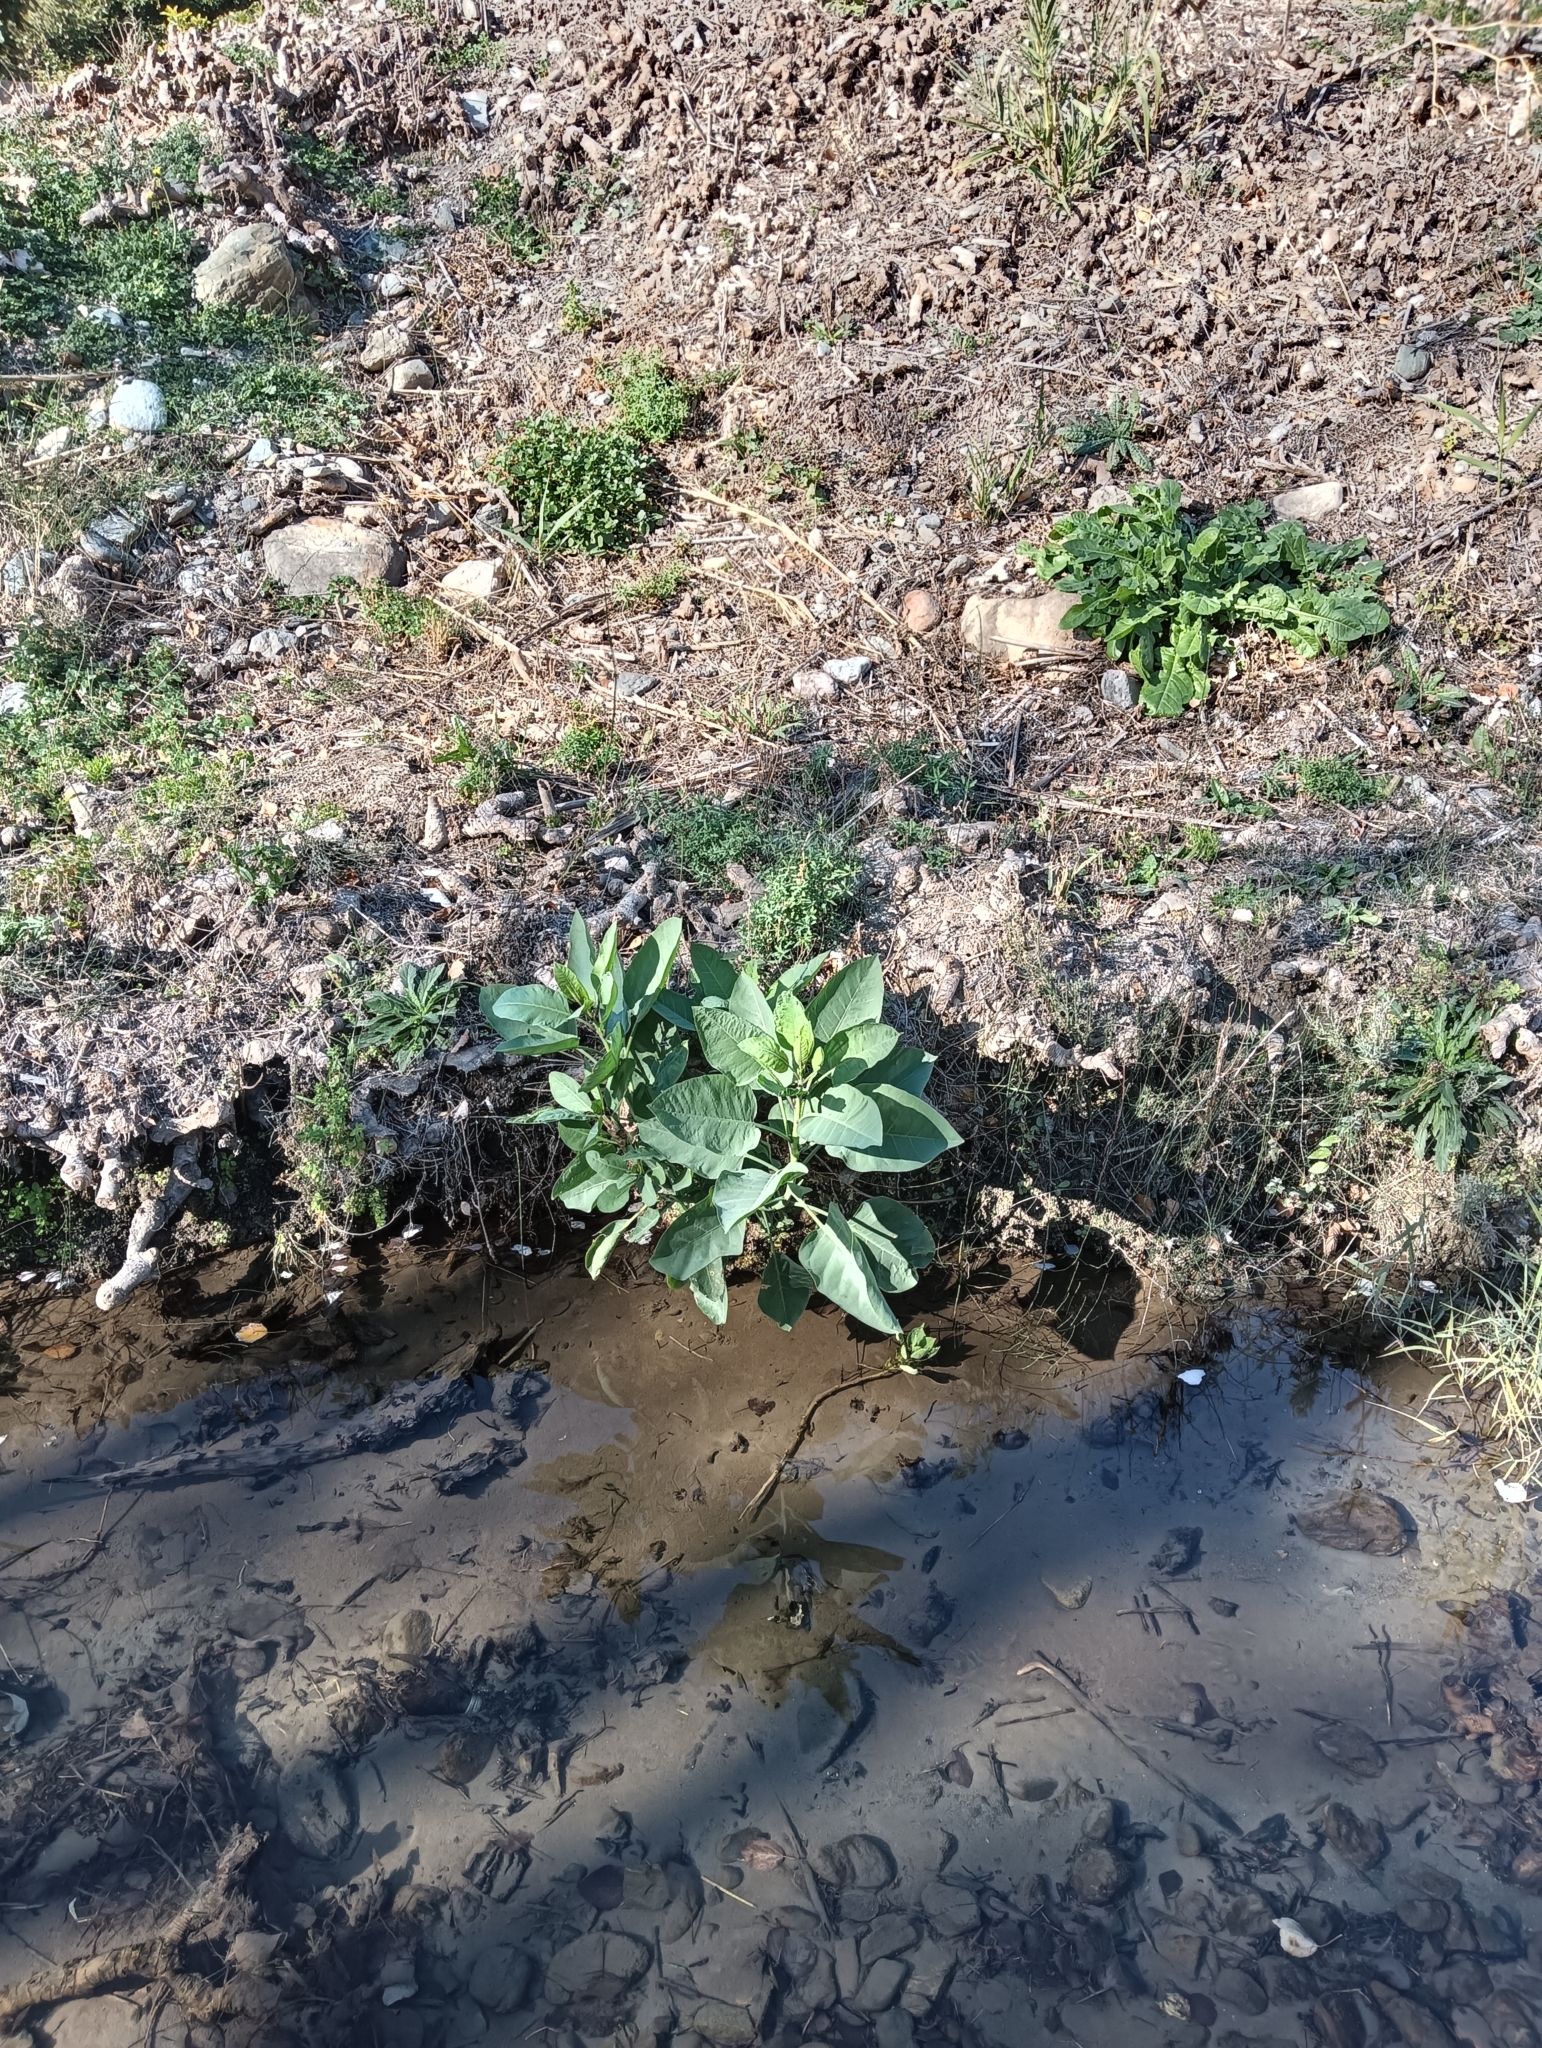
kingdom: Plantae
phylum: Tracheophyta
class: Magnoliopsida
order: Solanales
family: Solanaceae
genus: Nicotiana
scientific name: Nicotiana glauca
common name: Tree tobacco
